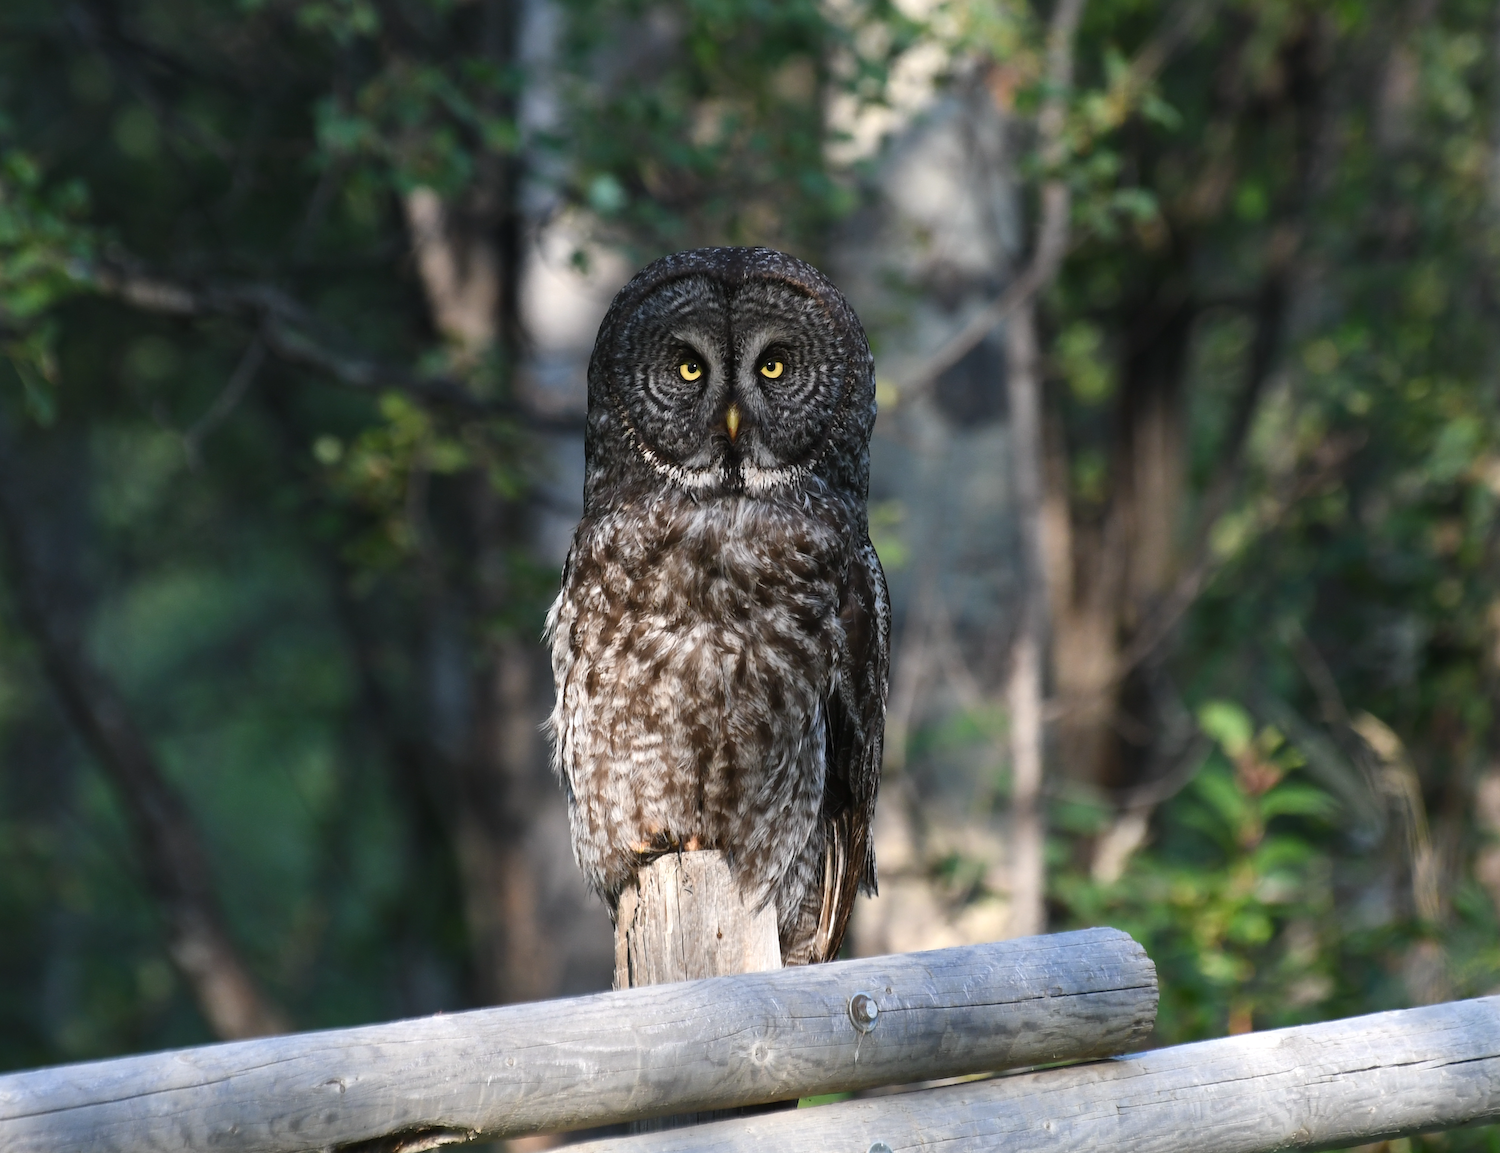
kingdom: Animalia
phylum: Chordata
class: Aves
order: Strigiformes
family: Strigidae
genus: Strix
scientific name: Strix nebulosa
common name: Great grey owl
